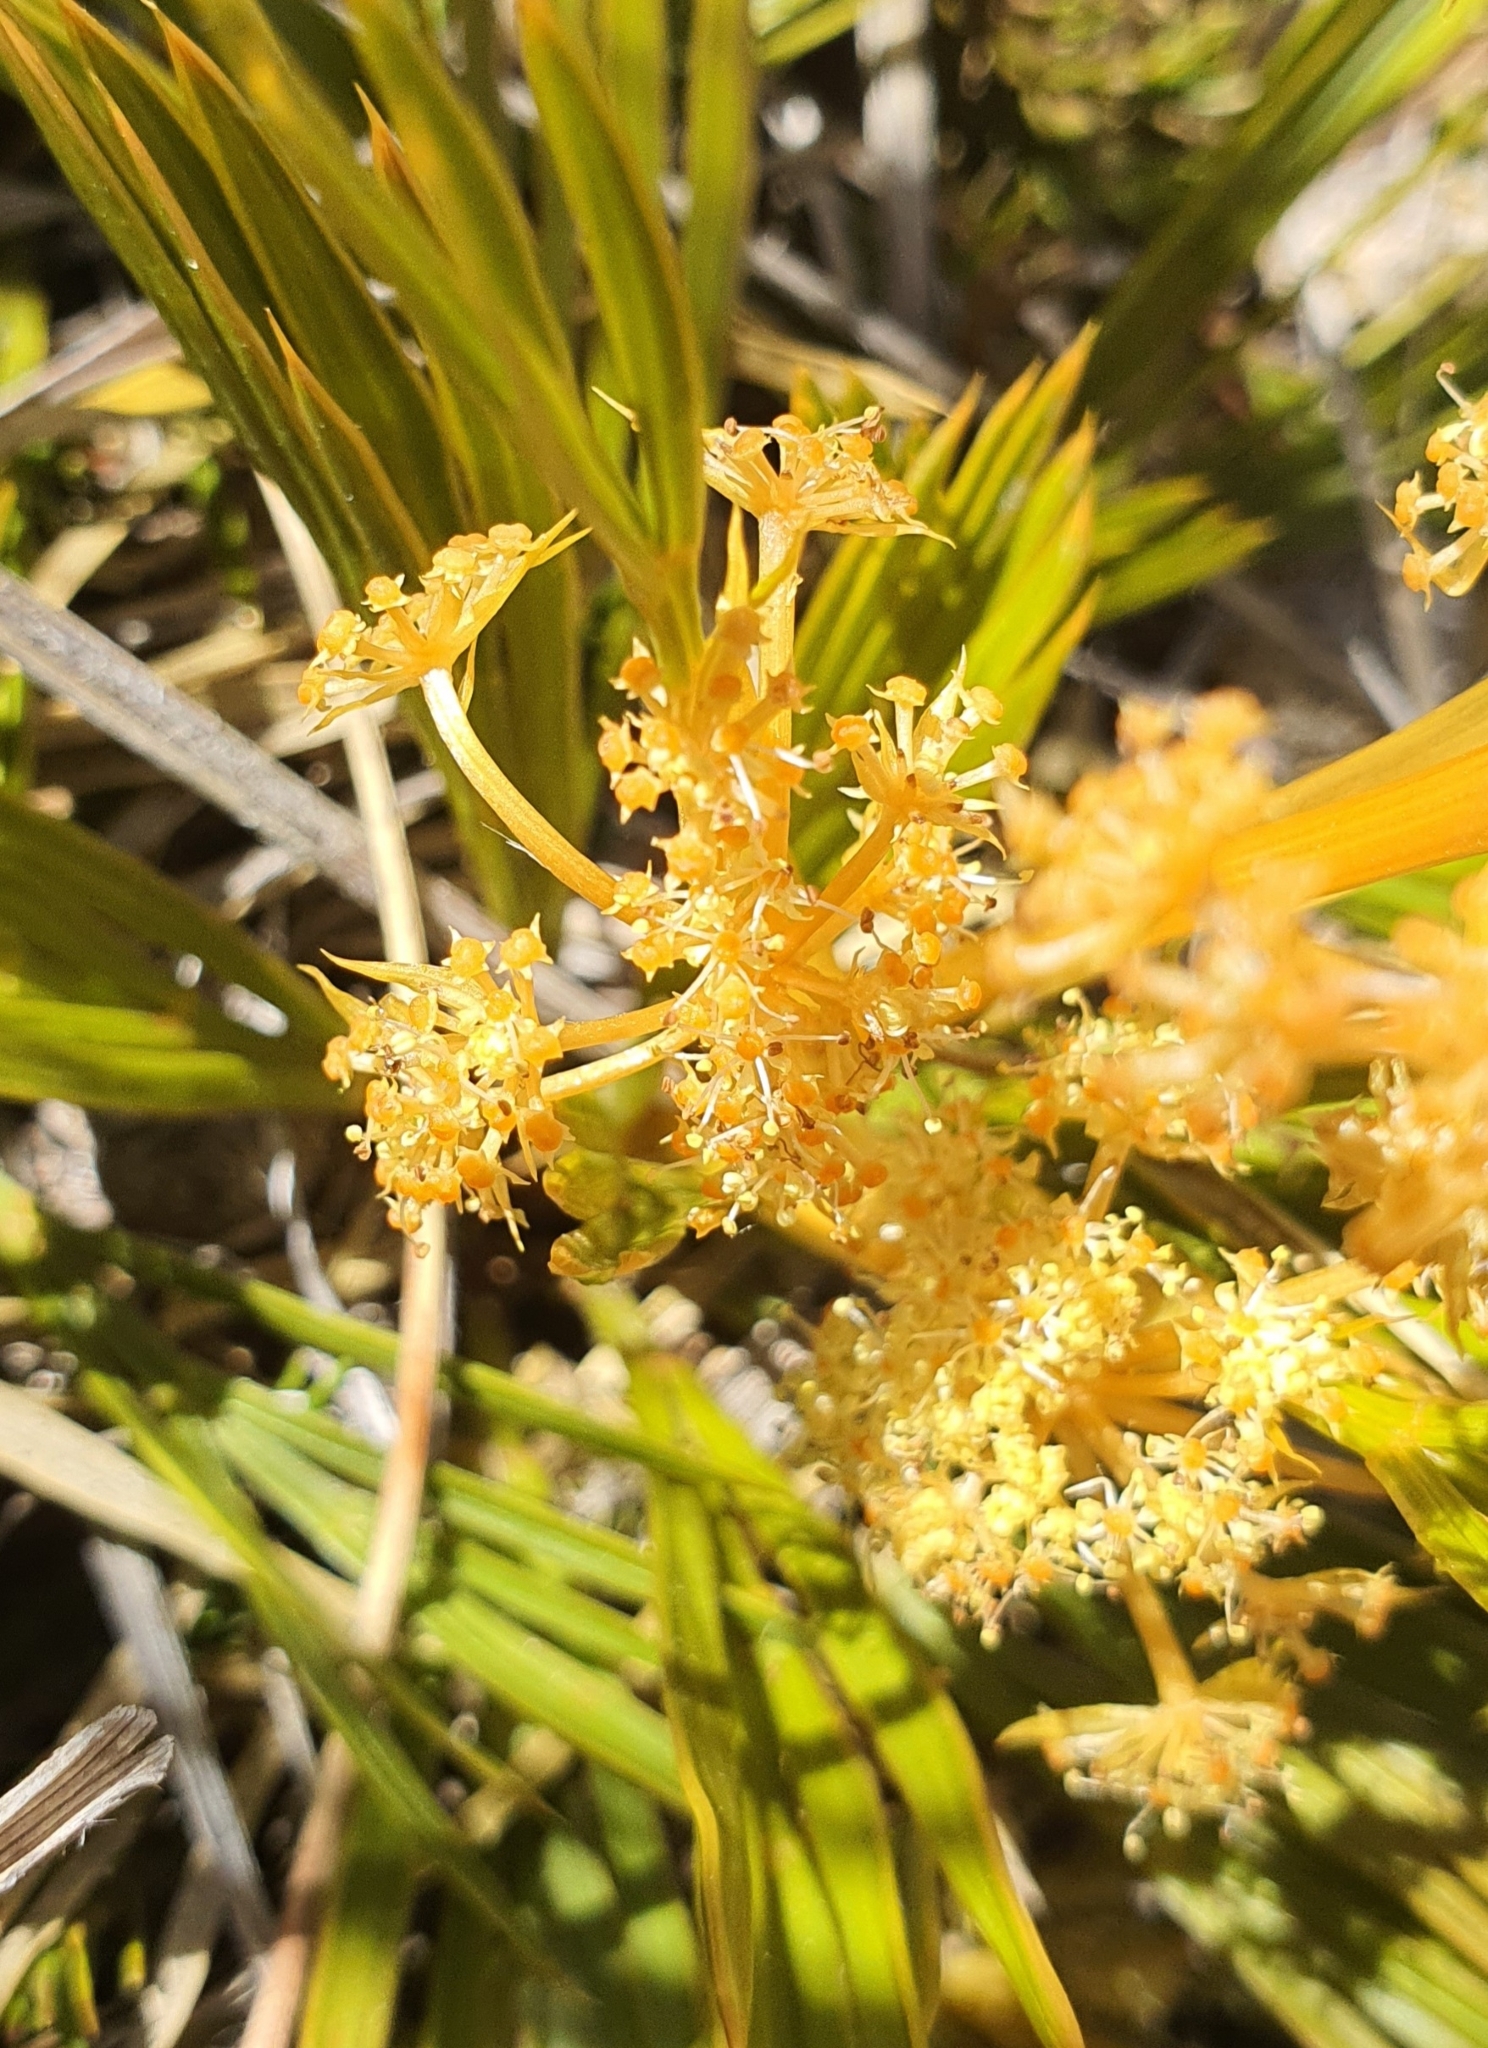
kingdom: Plantae
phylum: Tracheophyta
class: Magnoliopsida
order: Apiales
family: Apiaceae
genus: Aciphylla
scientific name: Aciphylla montana
